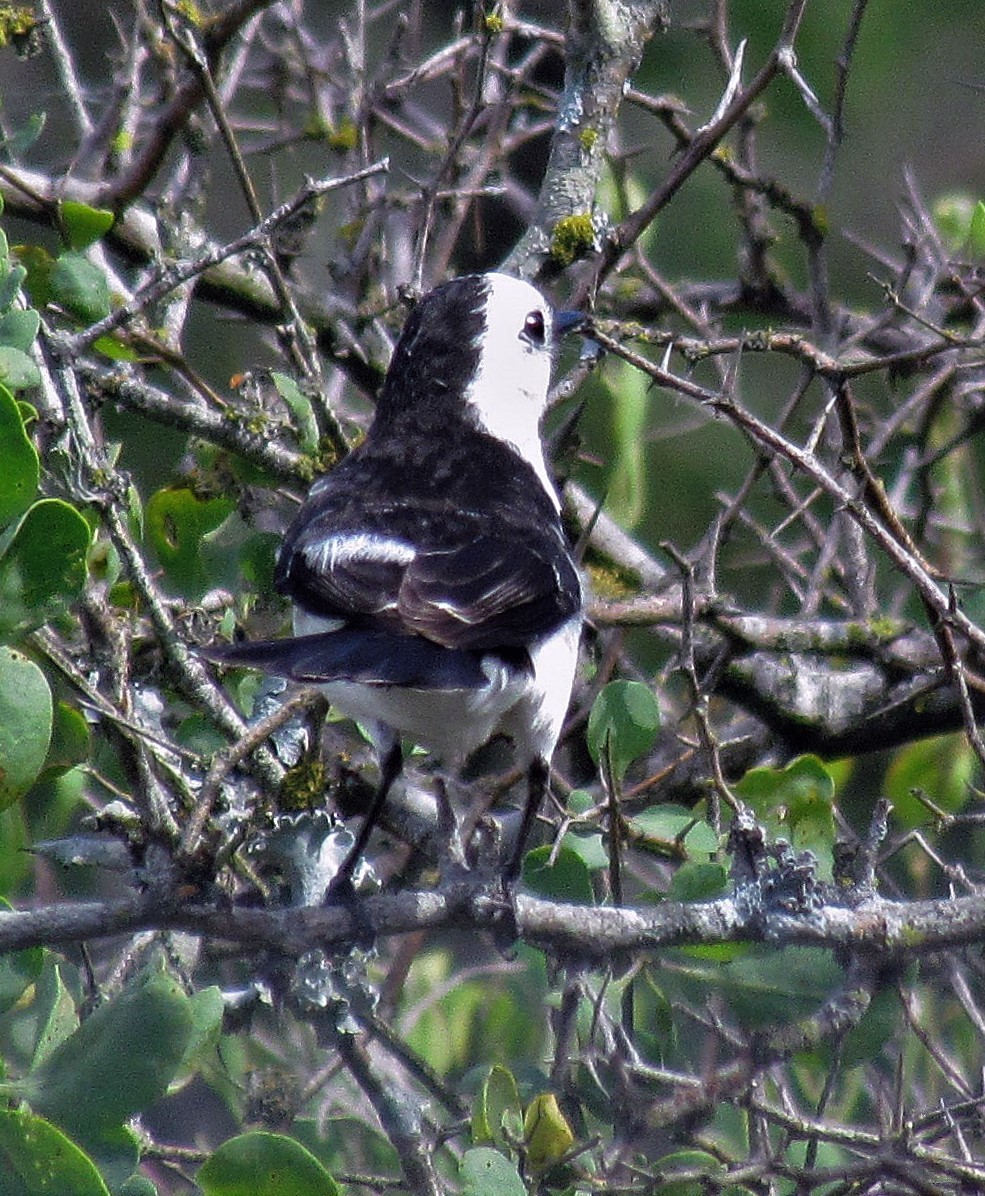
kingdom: Animalia
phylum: Chordata
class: Aves
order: Passeriformes
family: Tyrannidae
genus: Fluvicola
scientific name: Fluvicola pica
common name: Pied water-tyrant
